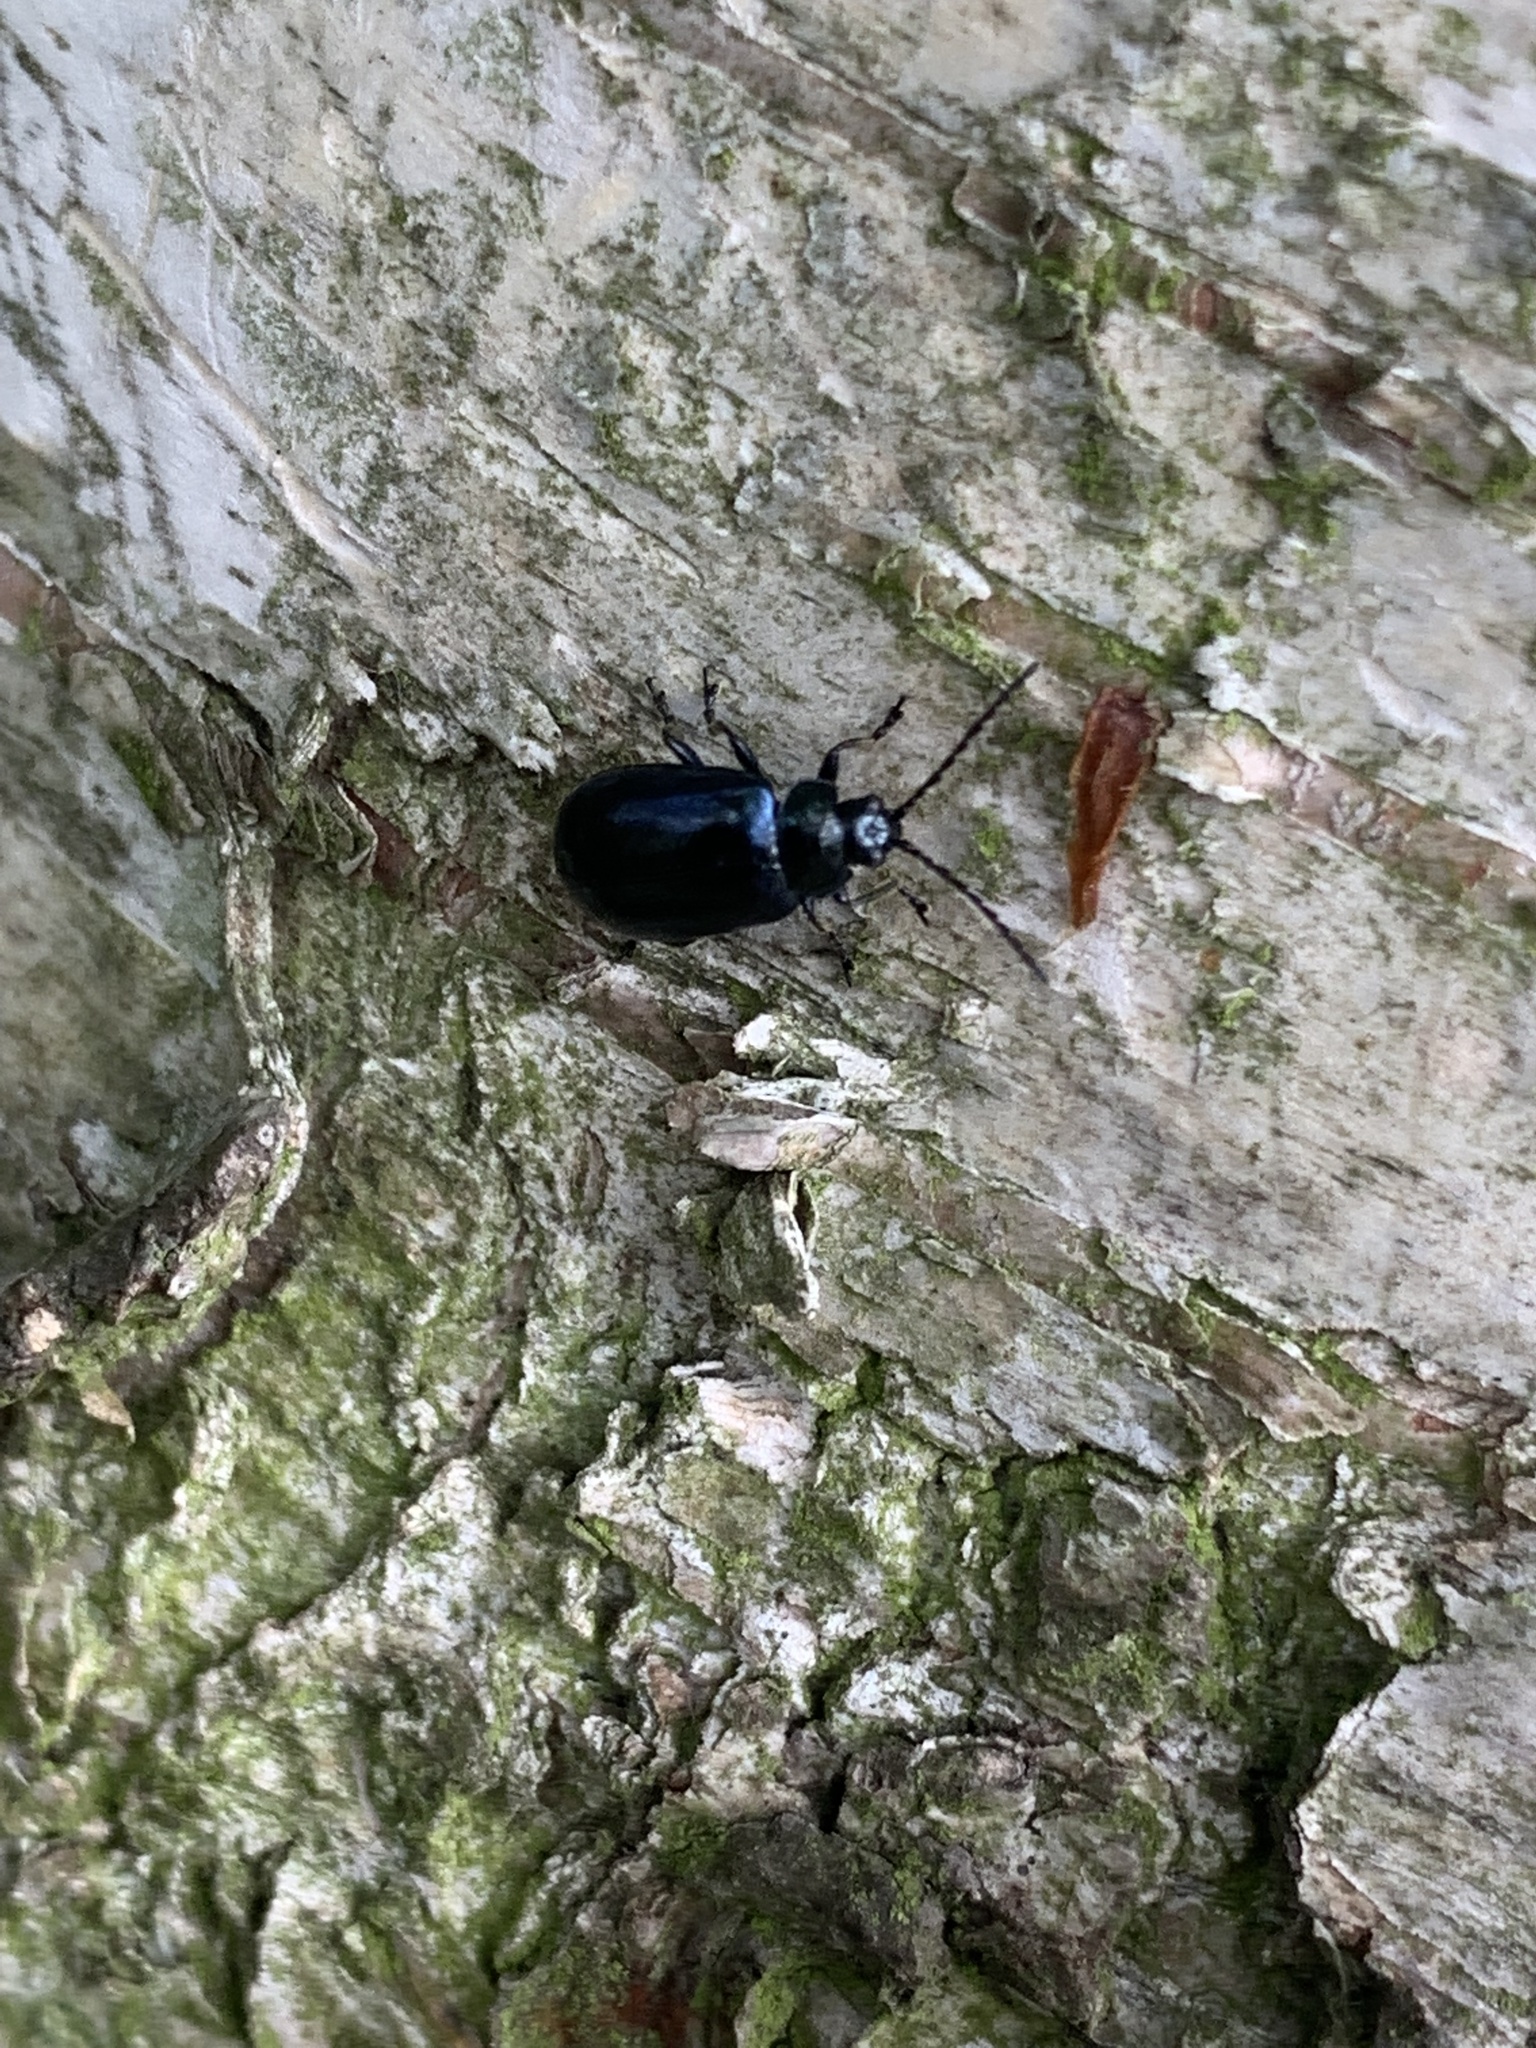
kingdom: Animalia
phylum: Arthropoda
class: Insecta
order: Coleoptera
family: Chrysomelidae
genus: Agelastica
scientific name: Agelastica alni
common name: Alder leaf beetle
